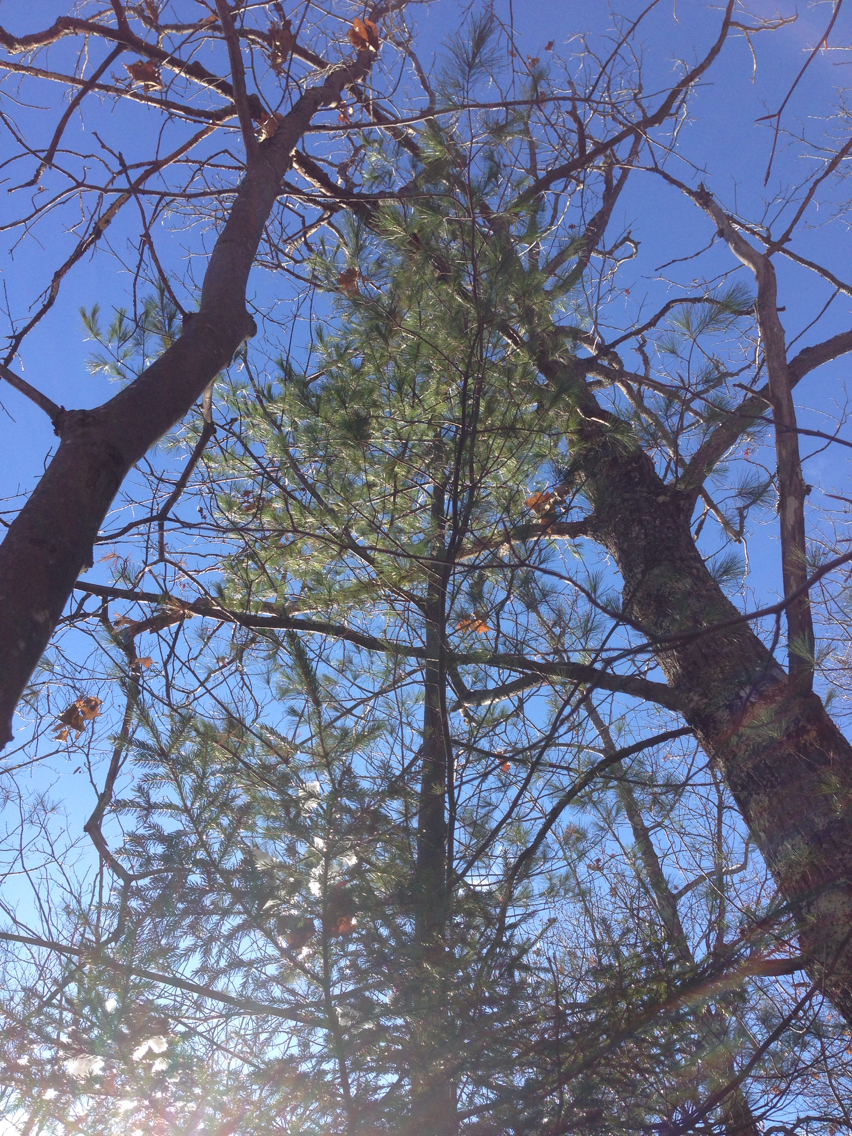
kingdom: Plantae
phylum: Tracheophyta
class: Pinopsida
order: Pinales
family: Pinaceae
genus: Pinus
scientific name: Pinus strobus
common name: Weymouth pine
